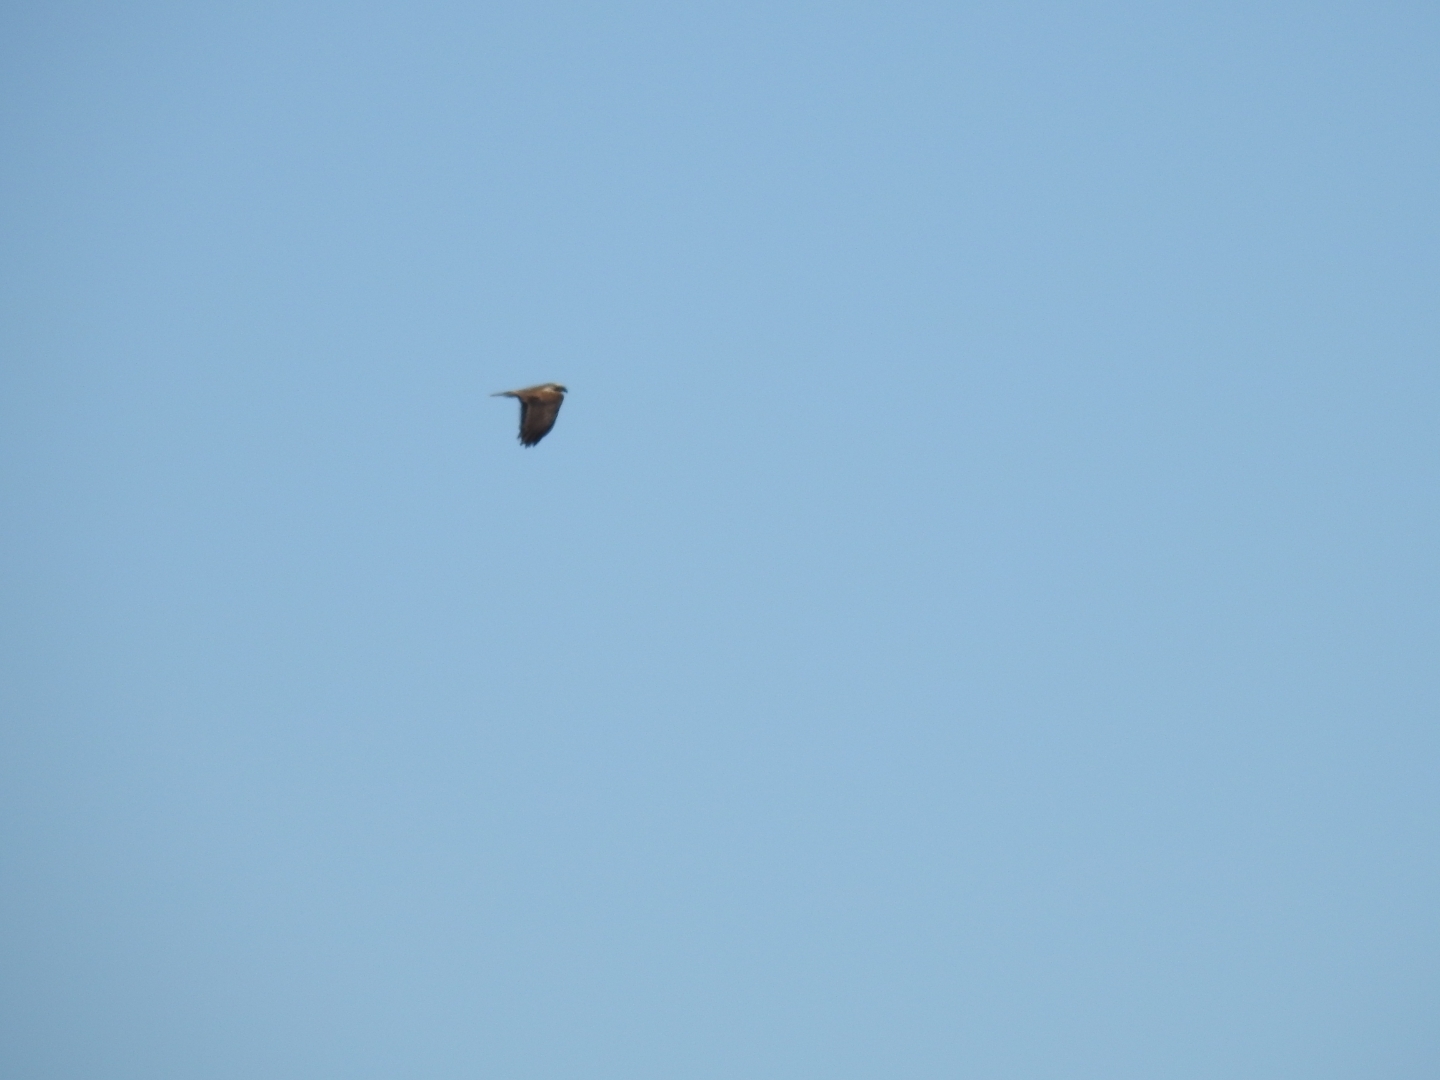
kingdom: Animalia
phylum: Chordata
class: Aves
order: Accipitriformes
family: Accipitridae
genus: Circus
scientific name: Circus aeruginosus
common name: Western marsh harrier
